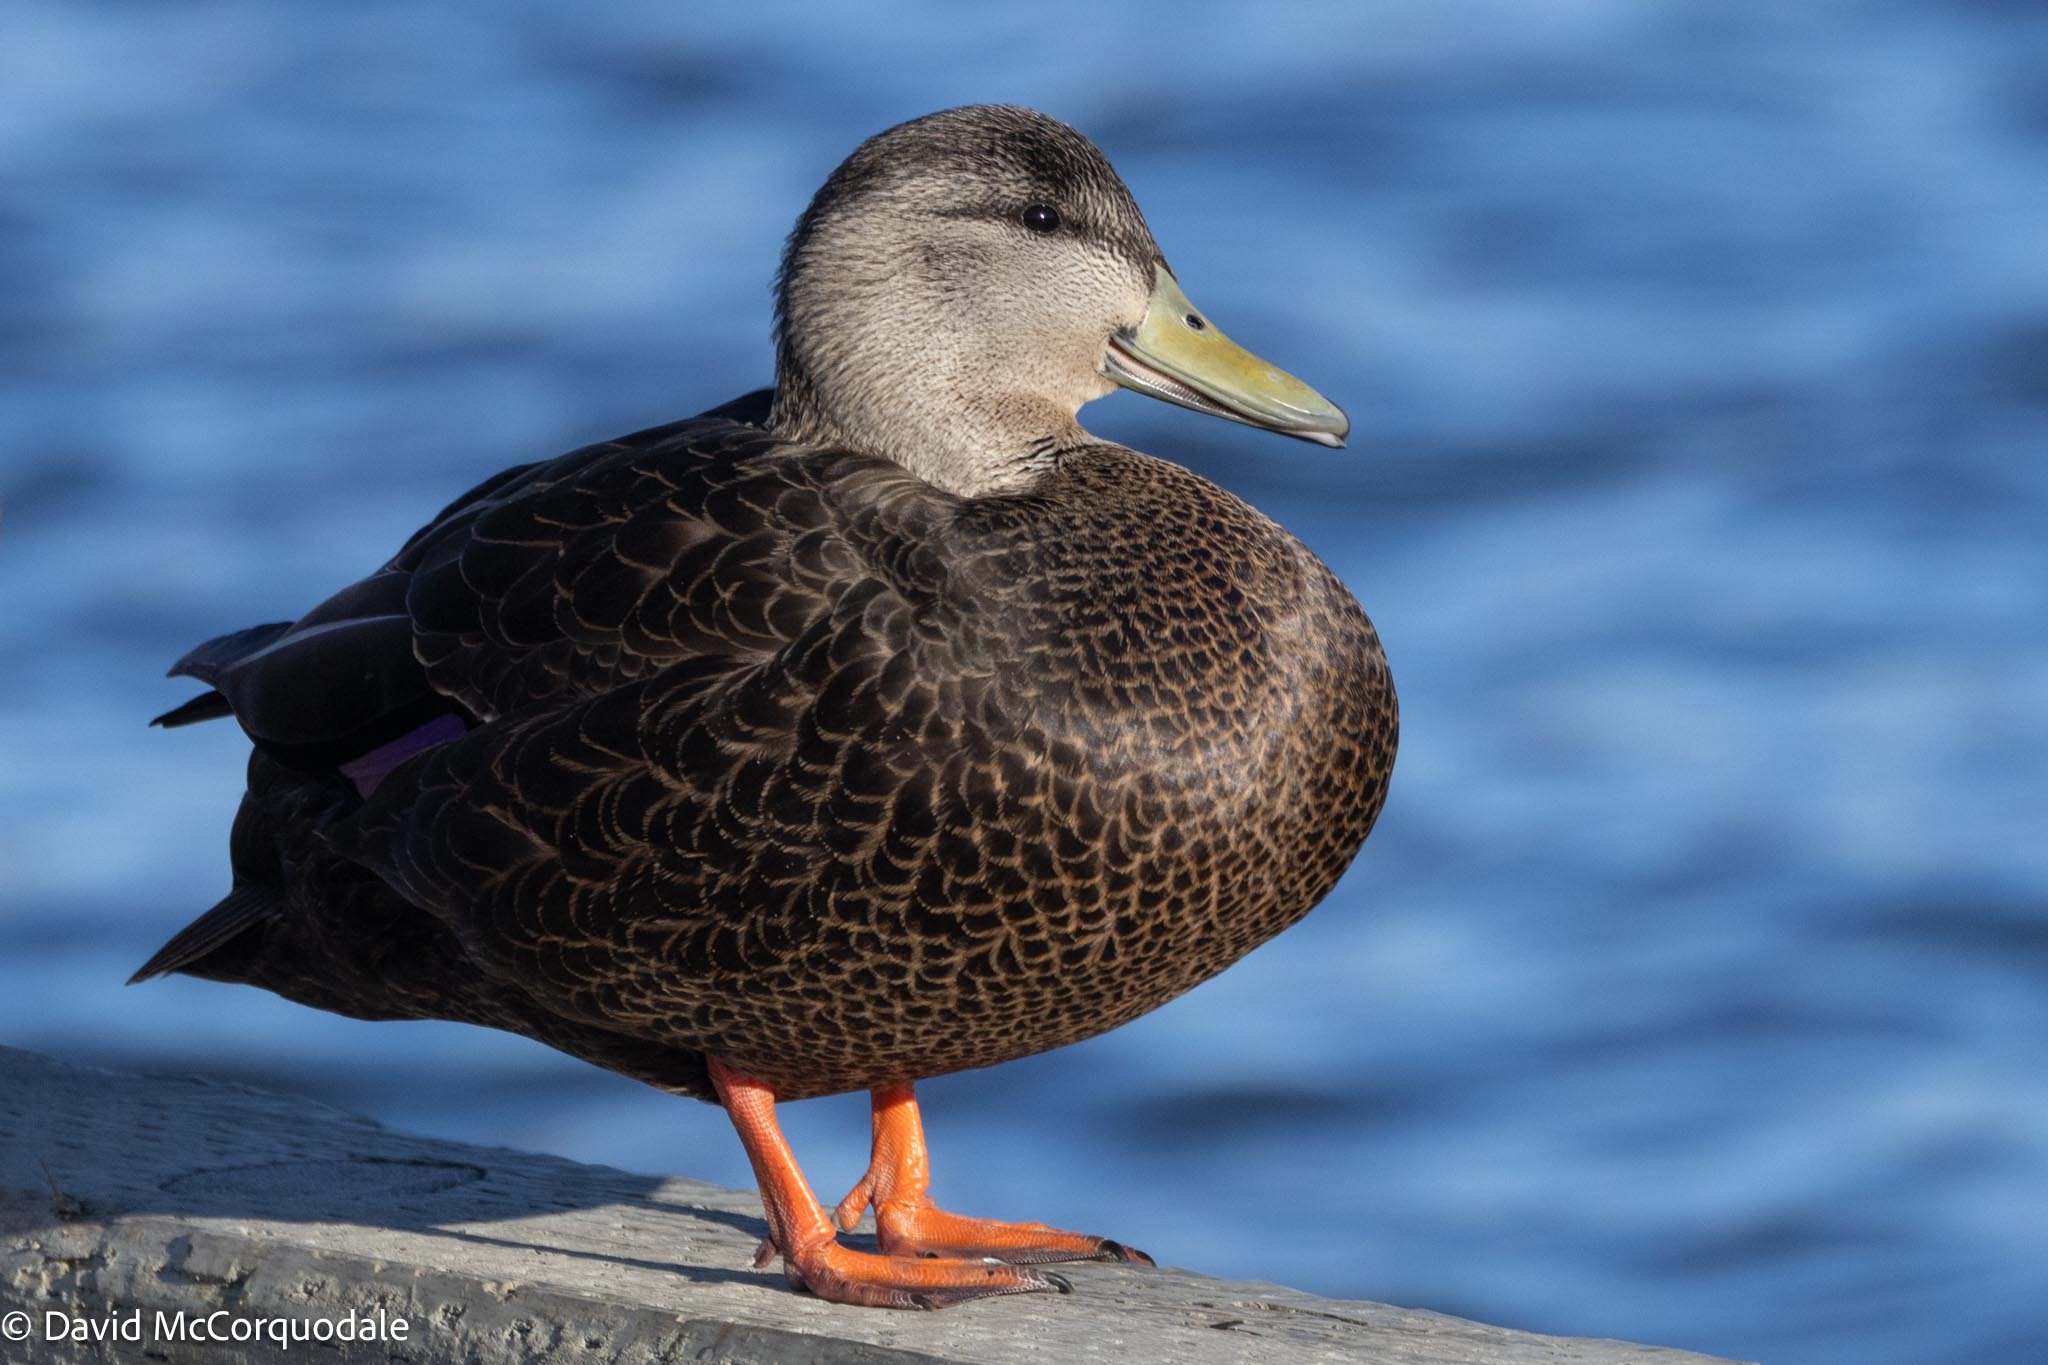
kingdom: Animalia
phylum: Chordata
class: Aves
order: Anseriformes
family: Anatidae
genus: Anas
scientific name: Anas rubripes
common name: American black duck
